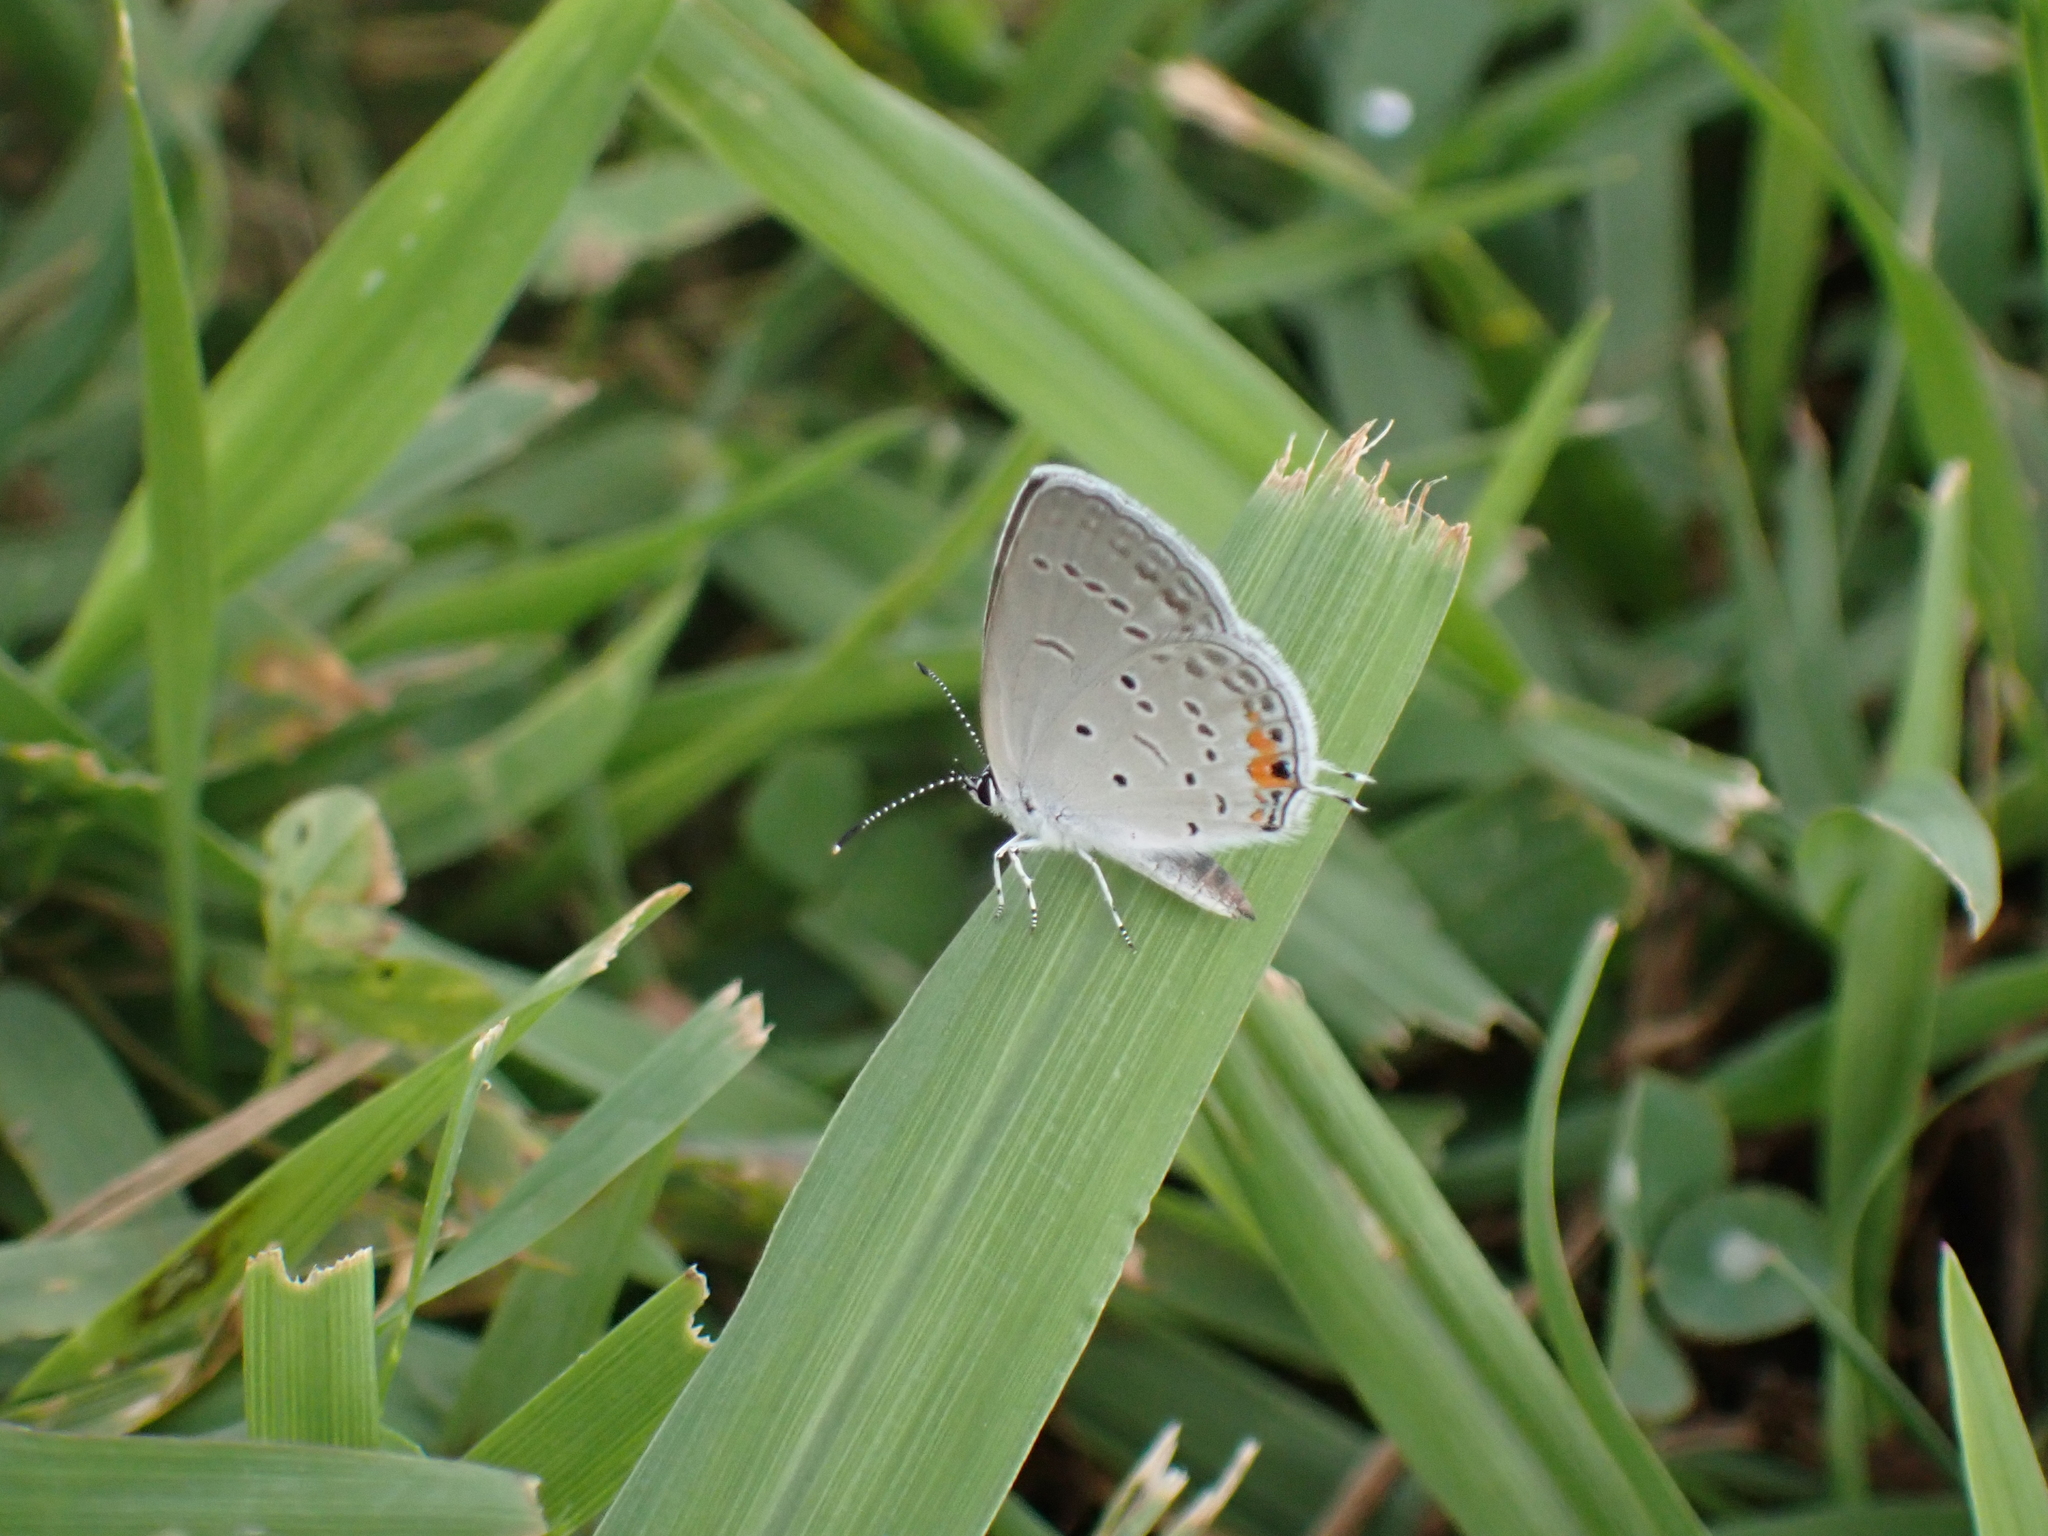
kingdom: Animalia
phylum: Arthropoda
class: Insecta
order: Lepidoptera
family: Lycaenidae
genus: Elkalyce
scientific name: Elkalyce comyntas
